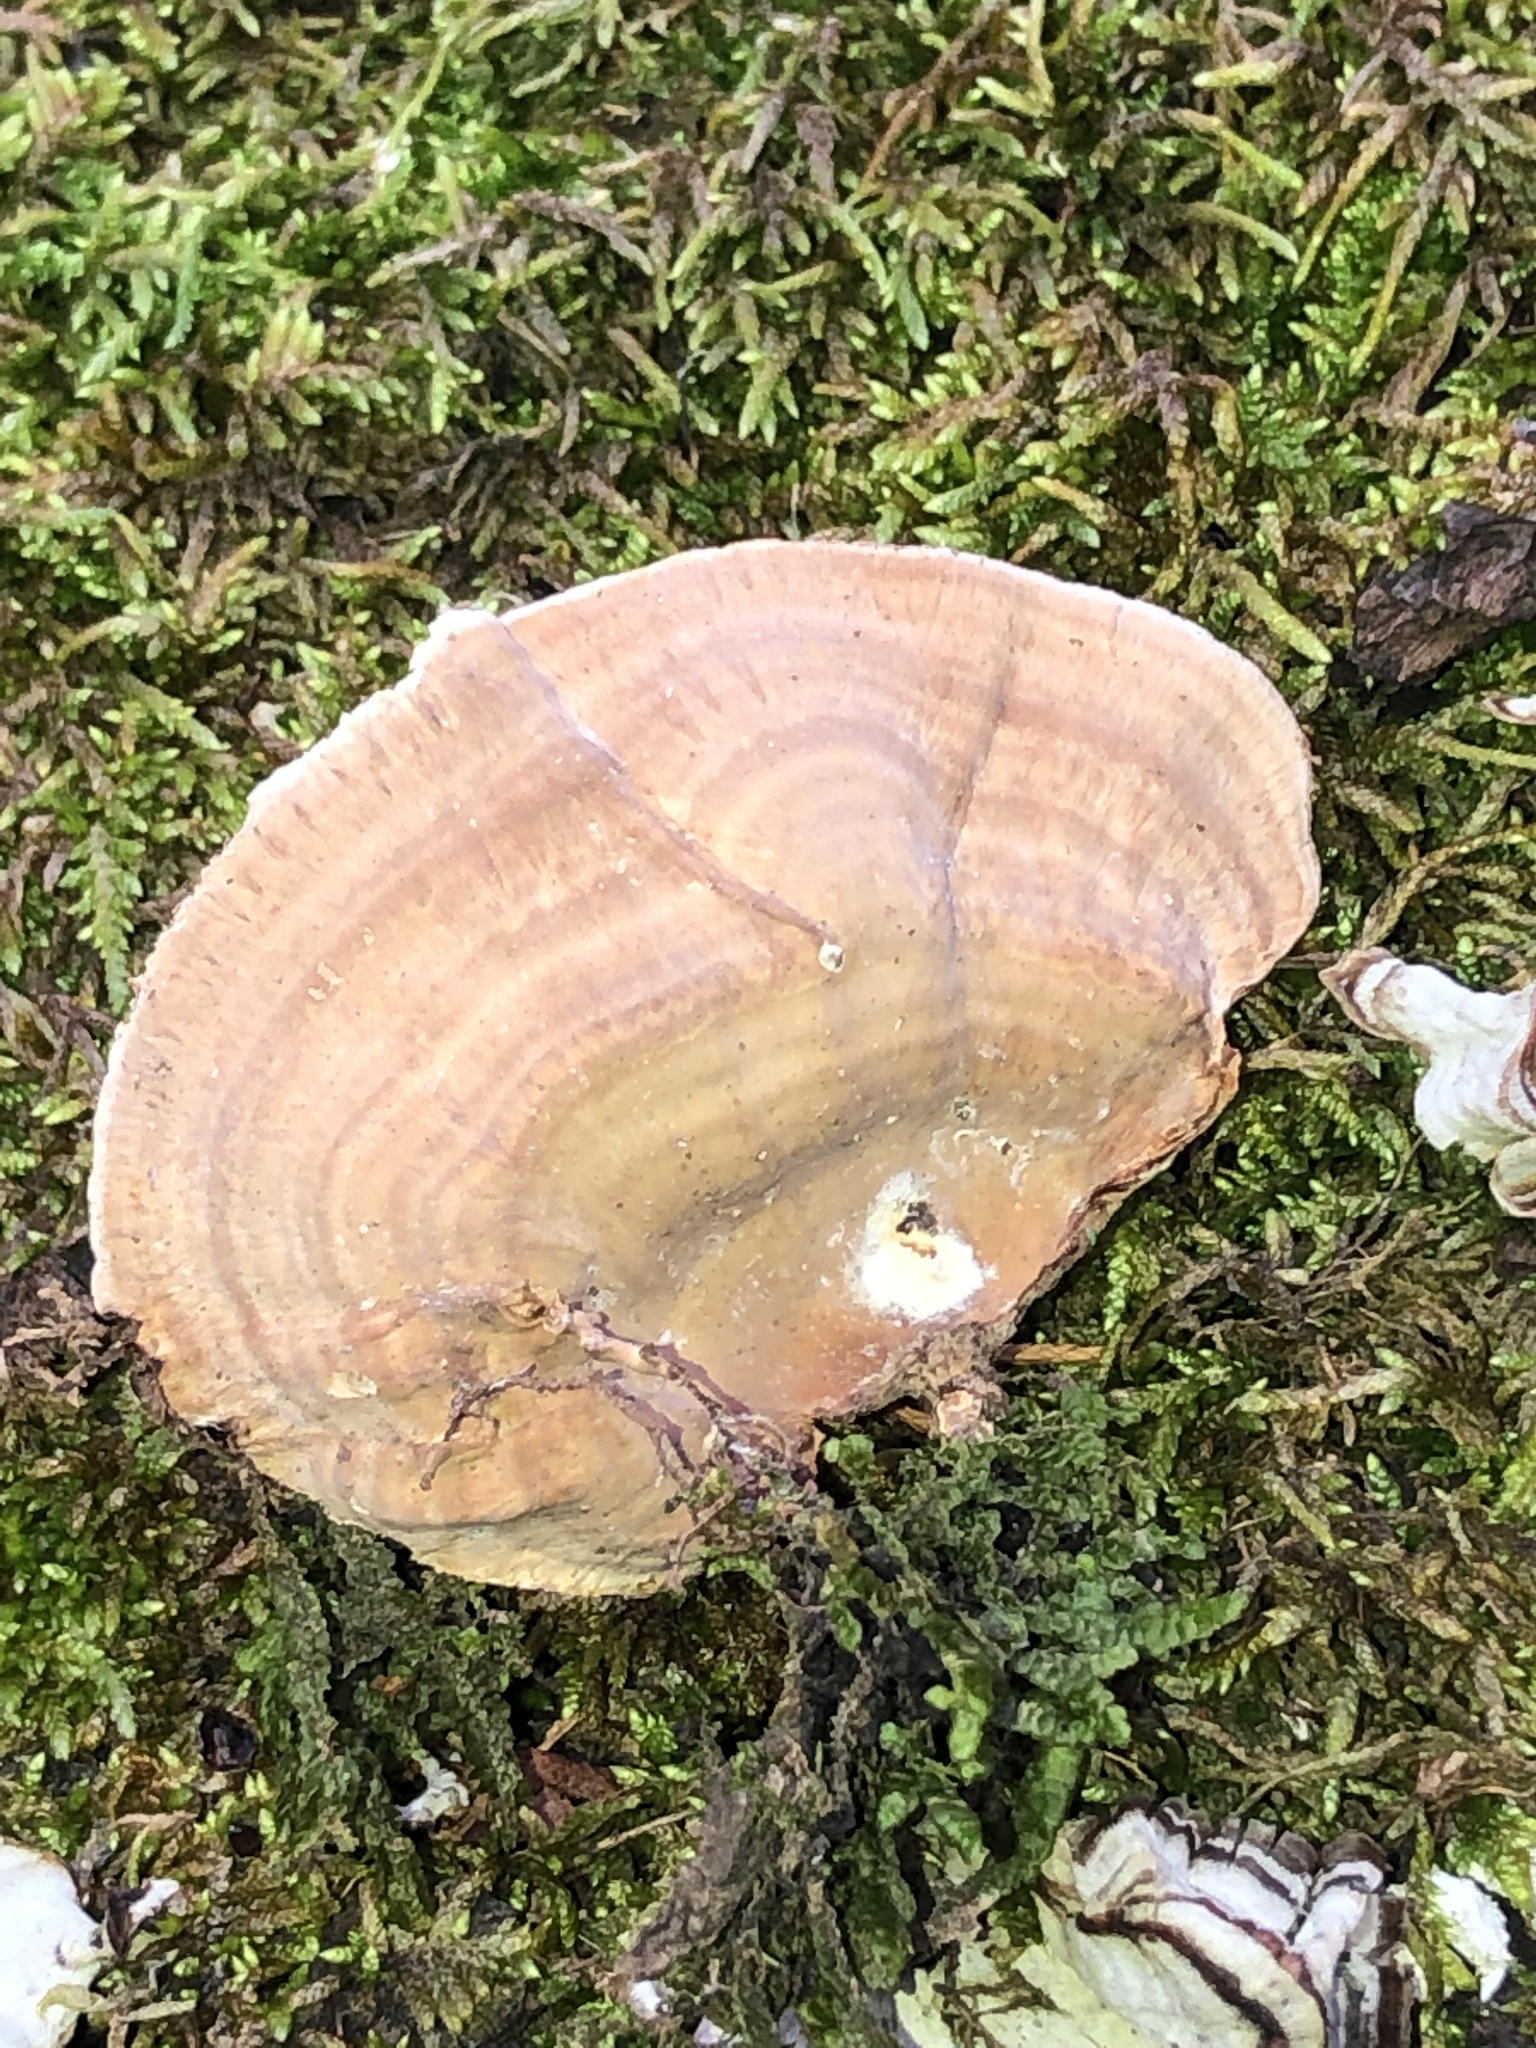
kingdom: Fungi
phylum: Basidiomycota
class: Agaricomycetes
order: Russulales
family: Stereaceae
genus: Stereum
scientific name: Stereum lobatum
